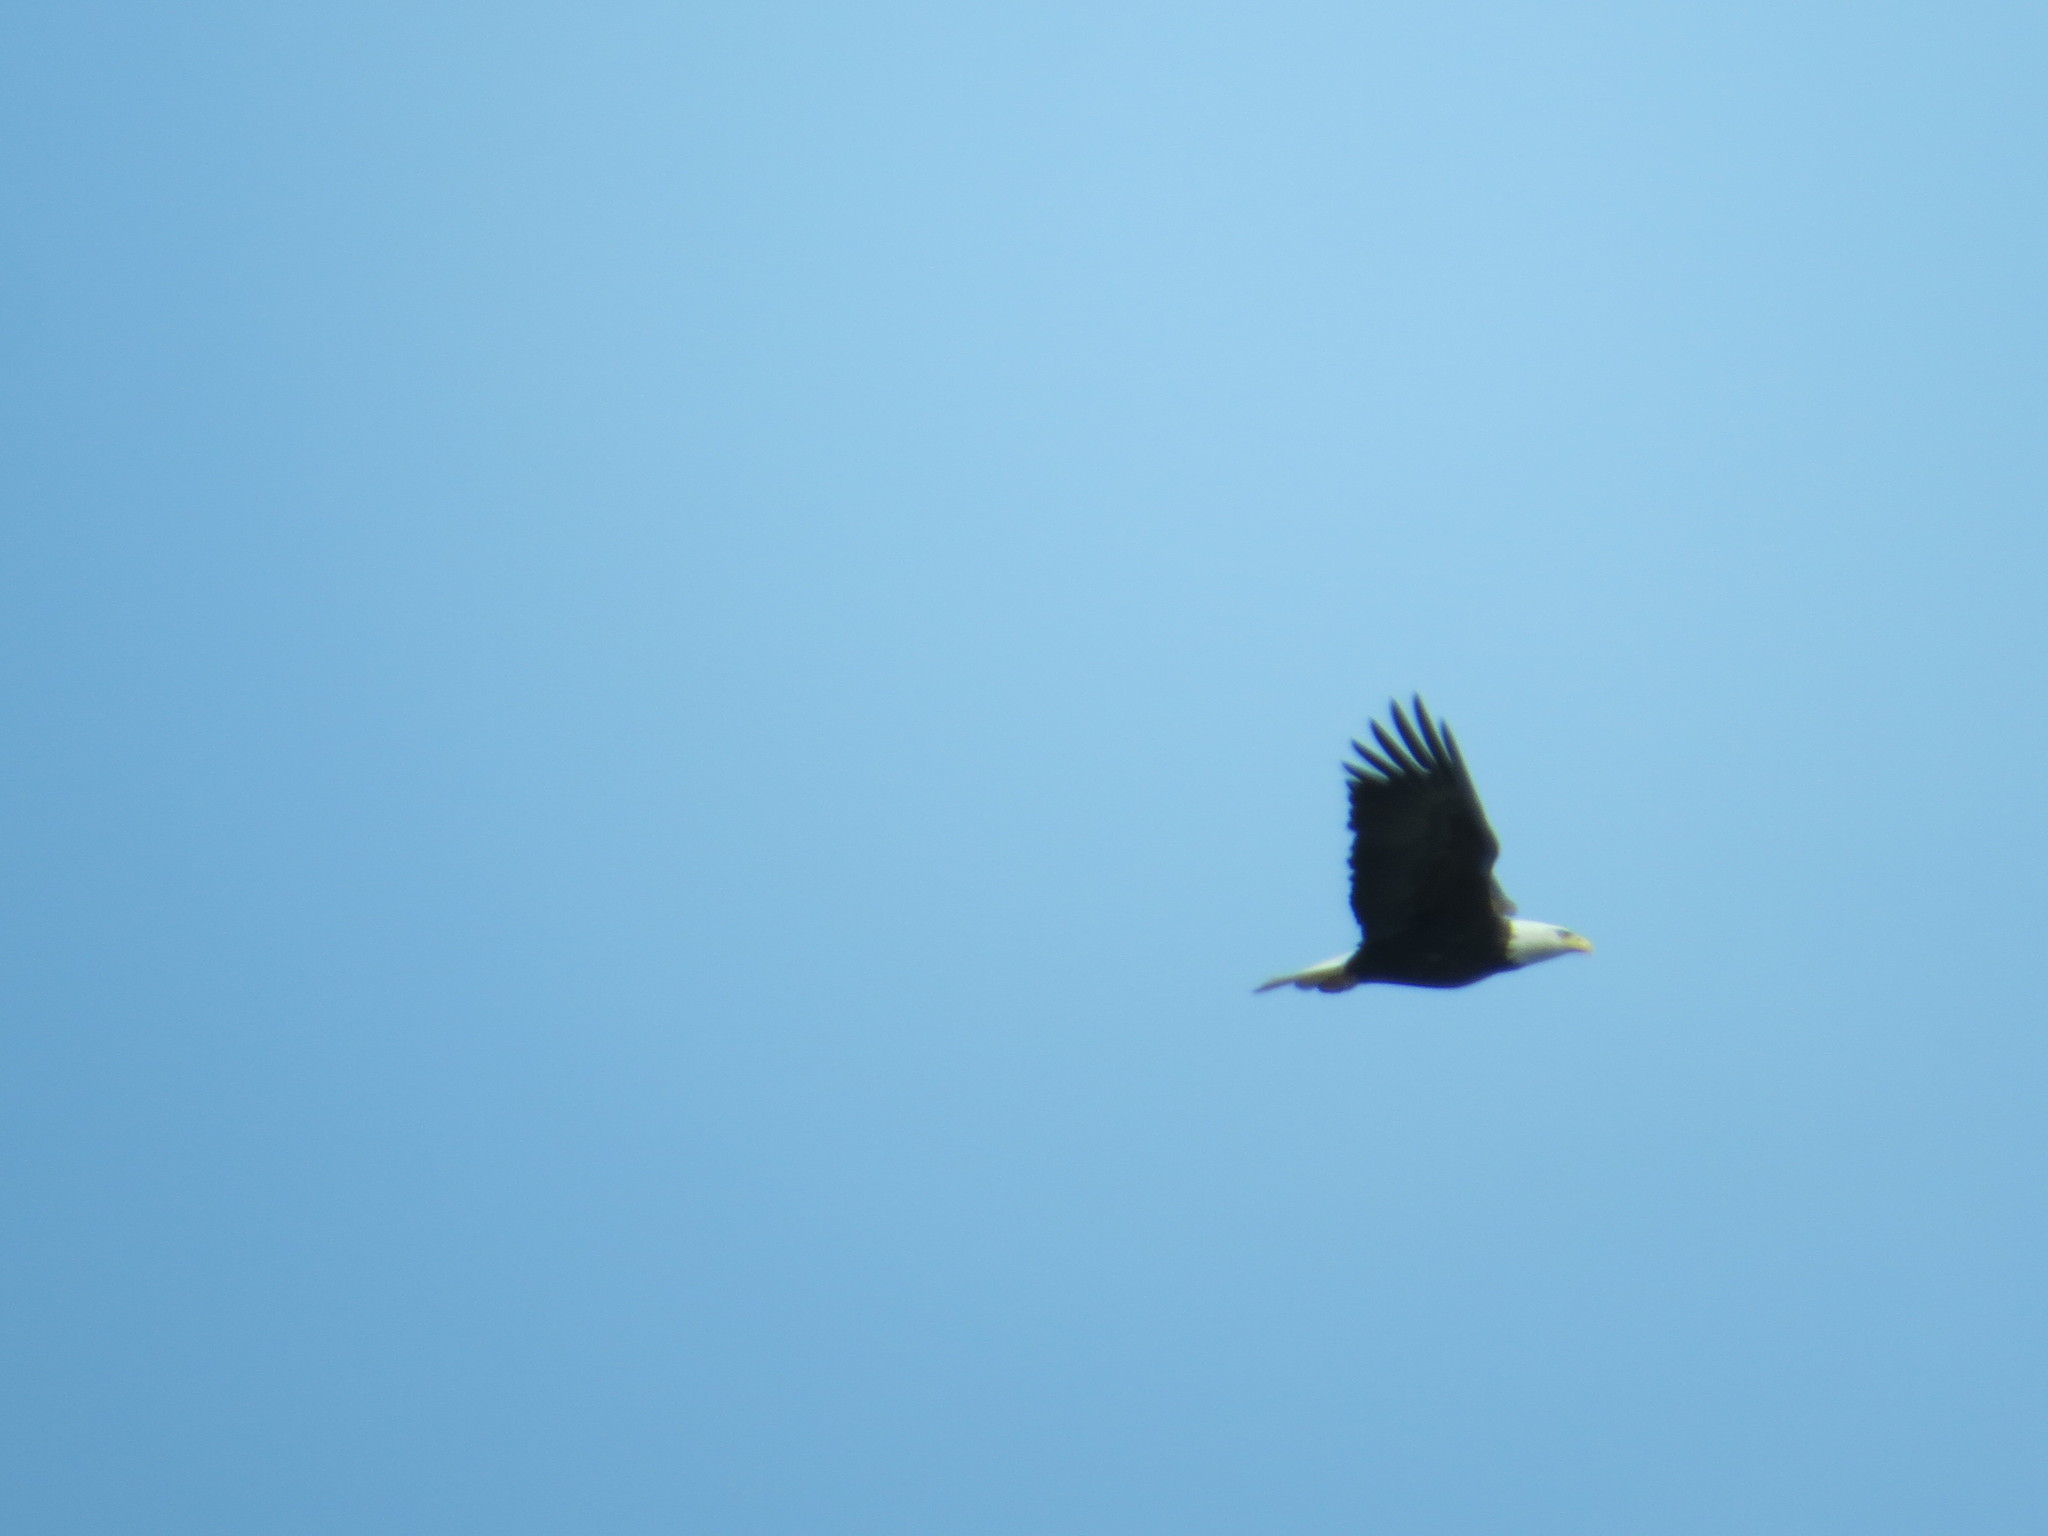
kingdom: Animalia
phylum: Chordata
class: Aves
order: Accipitriformes
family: Accipitridae
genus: Haliaeetus
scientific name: Haliaeetus leucocephalus
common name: Bald eagle
